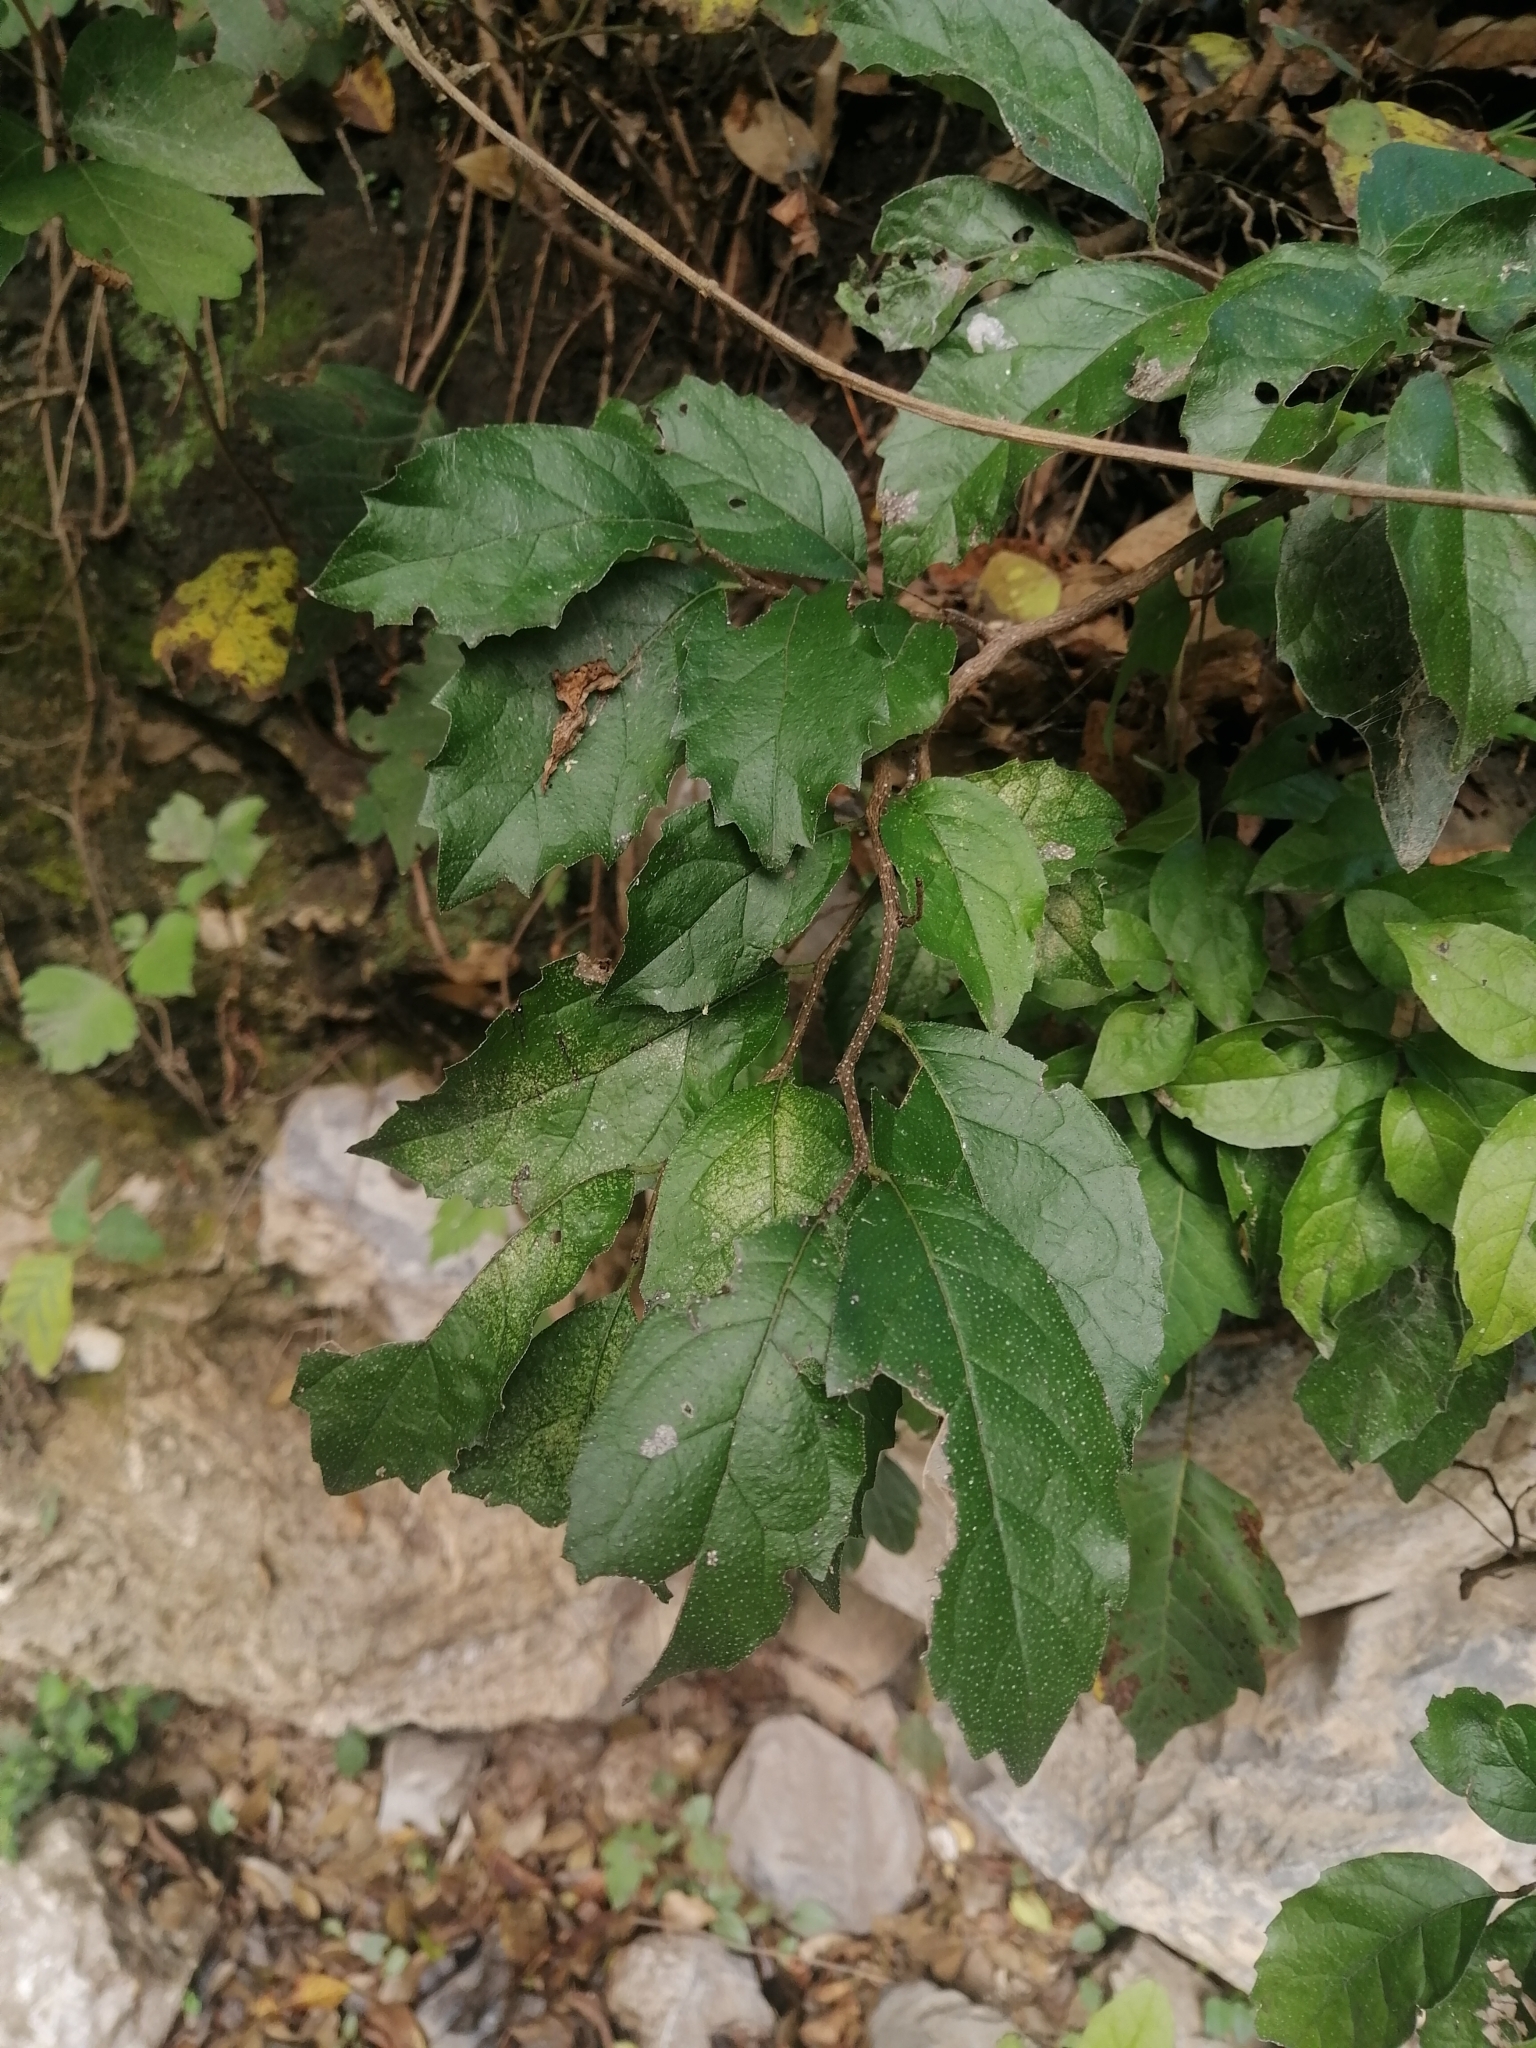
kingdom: Plantae
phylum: Tracheophyta
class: Magnoliopsida
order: Boraginales
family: Ehretiaceae
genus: Ehretia
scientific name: Ehretia anacua
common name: Sugarberry
